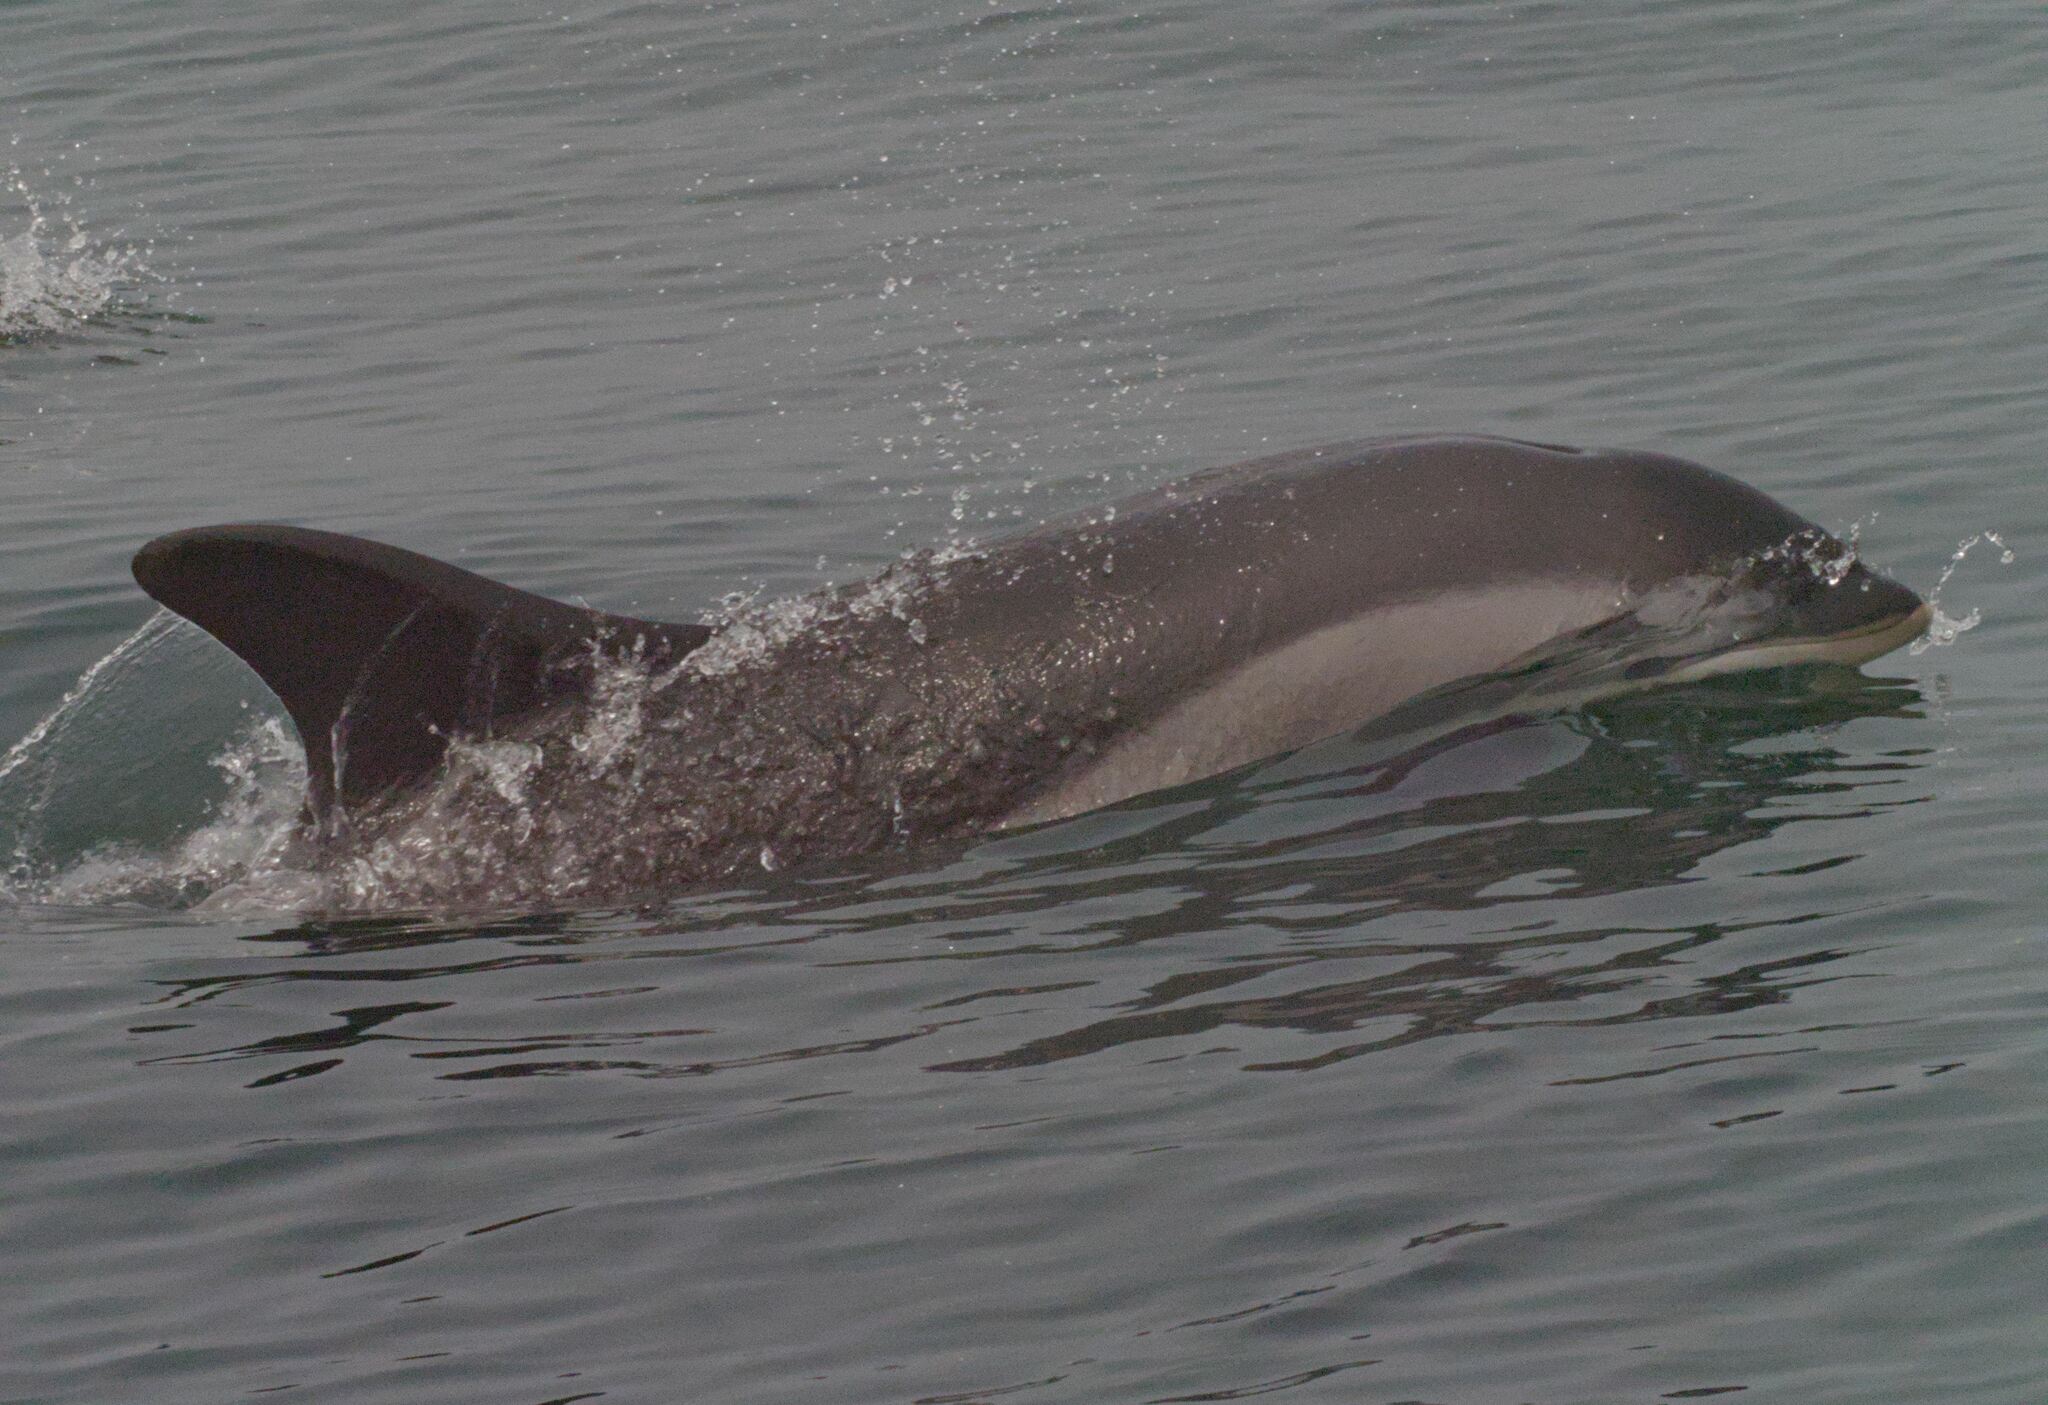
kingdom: Animalia
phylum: Chordata
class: Mammalia
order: Cetacea
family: Delphinidae
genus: Lagenorhynchus
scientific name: Lagenorhynchus acutus
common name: Atlantic white-sided dolphin
